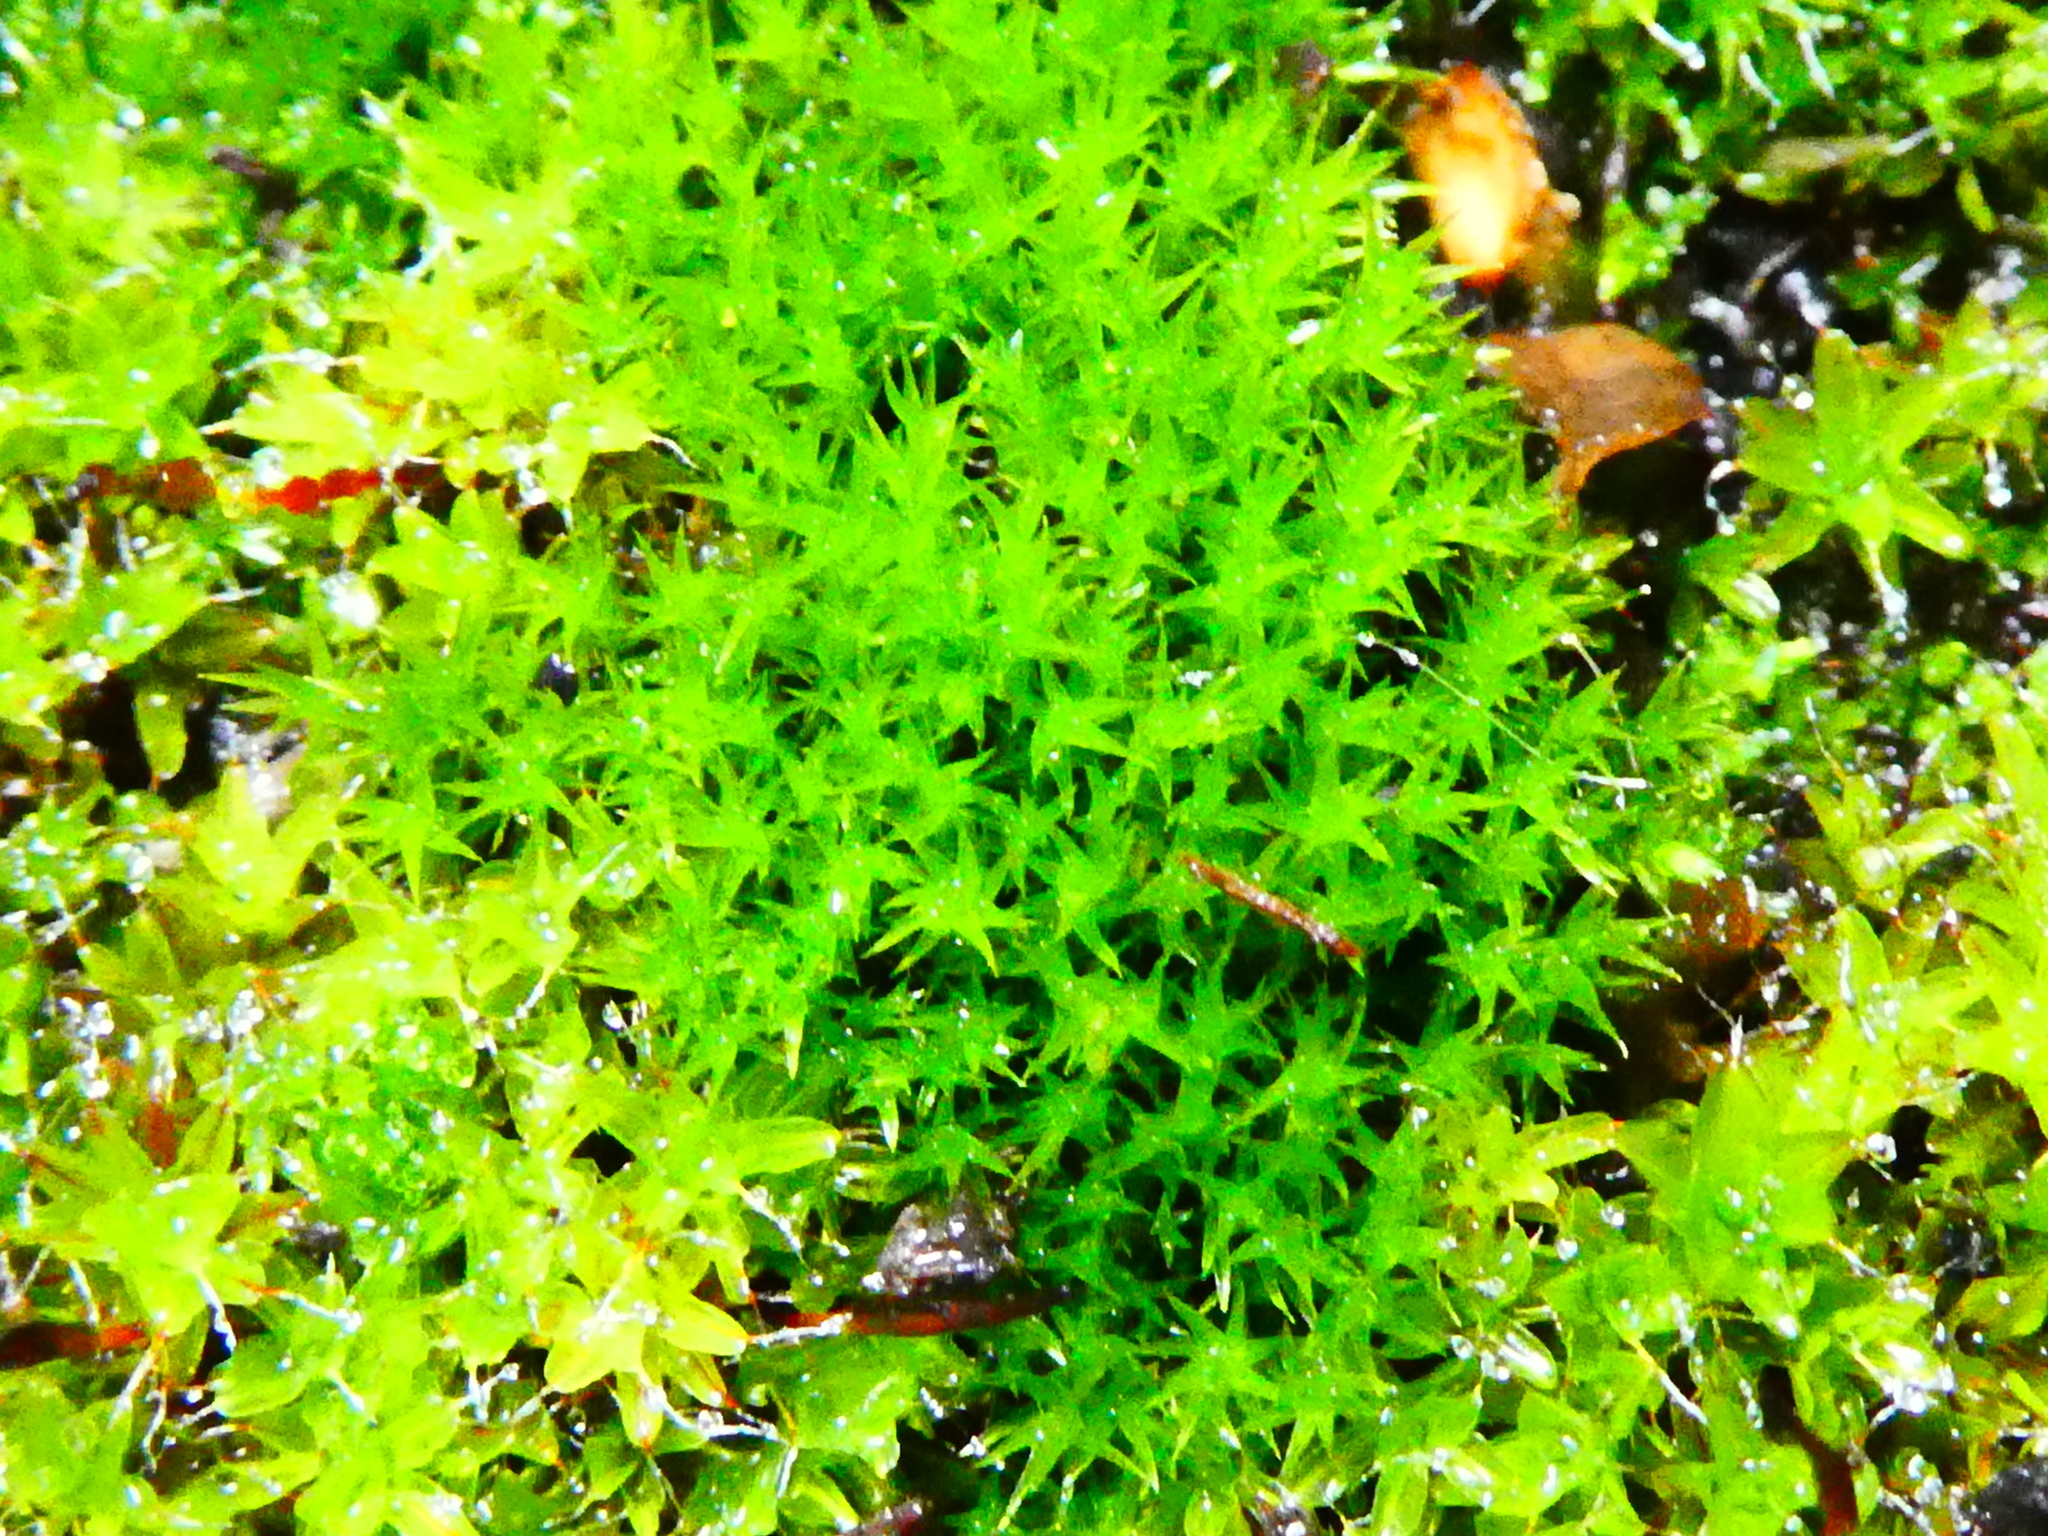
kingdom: Plantae
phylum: Bryophyta
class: Bryopsida
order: Dicranales
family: Ditrichaceae
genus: Ceratodon
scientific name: Ceratodon purpureus
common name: Redshank
